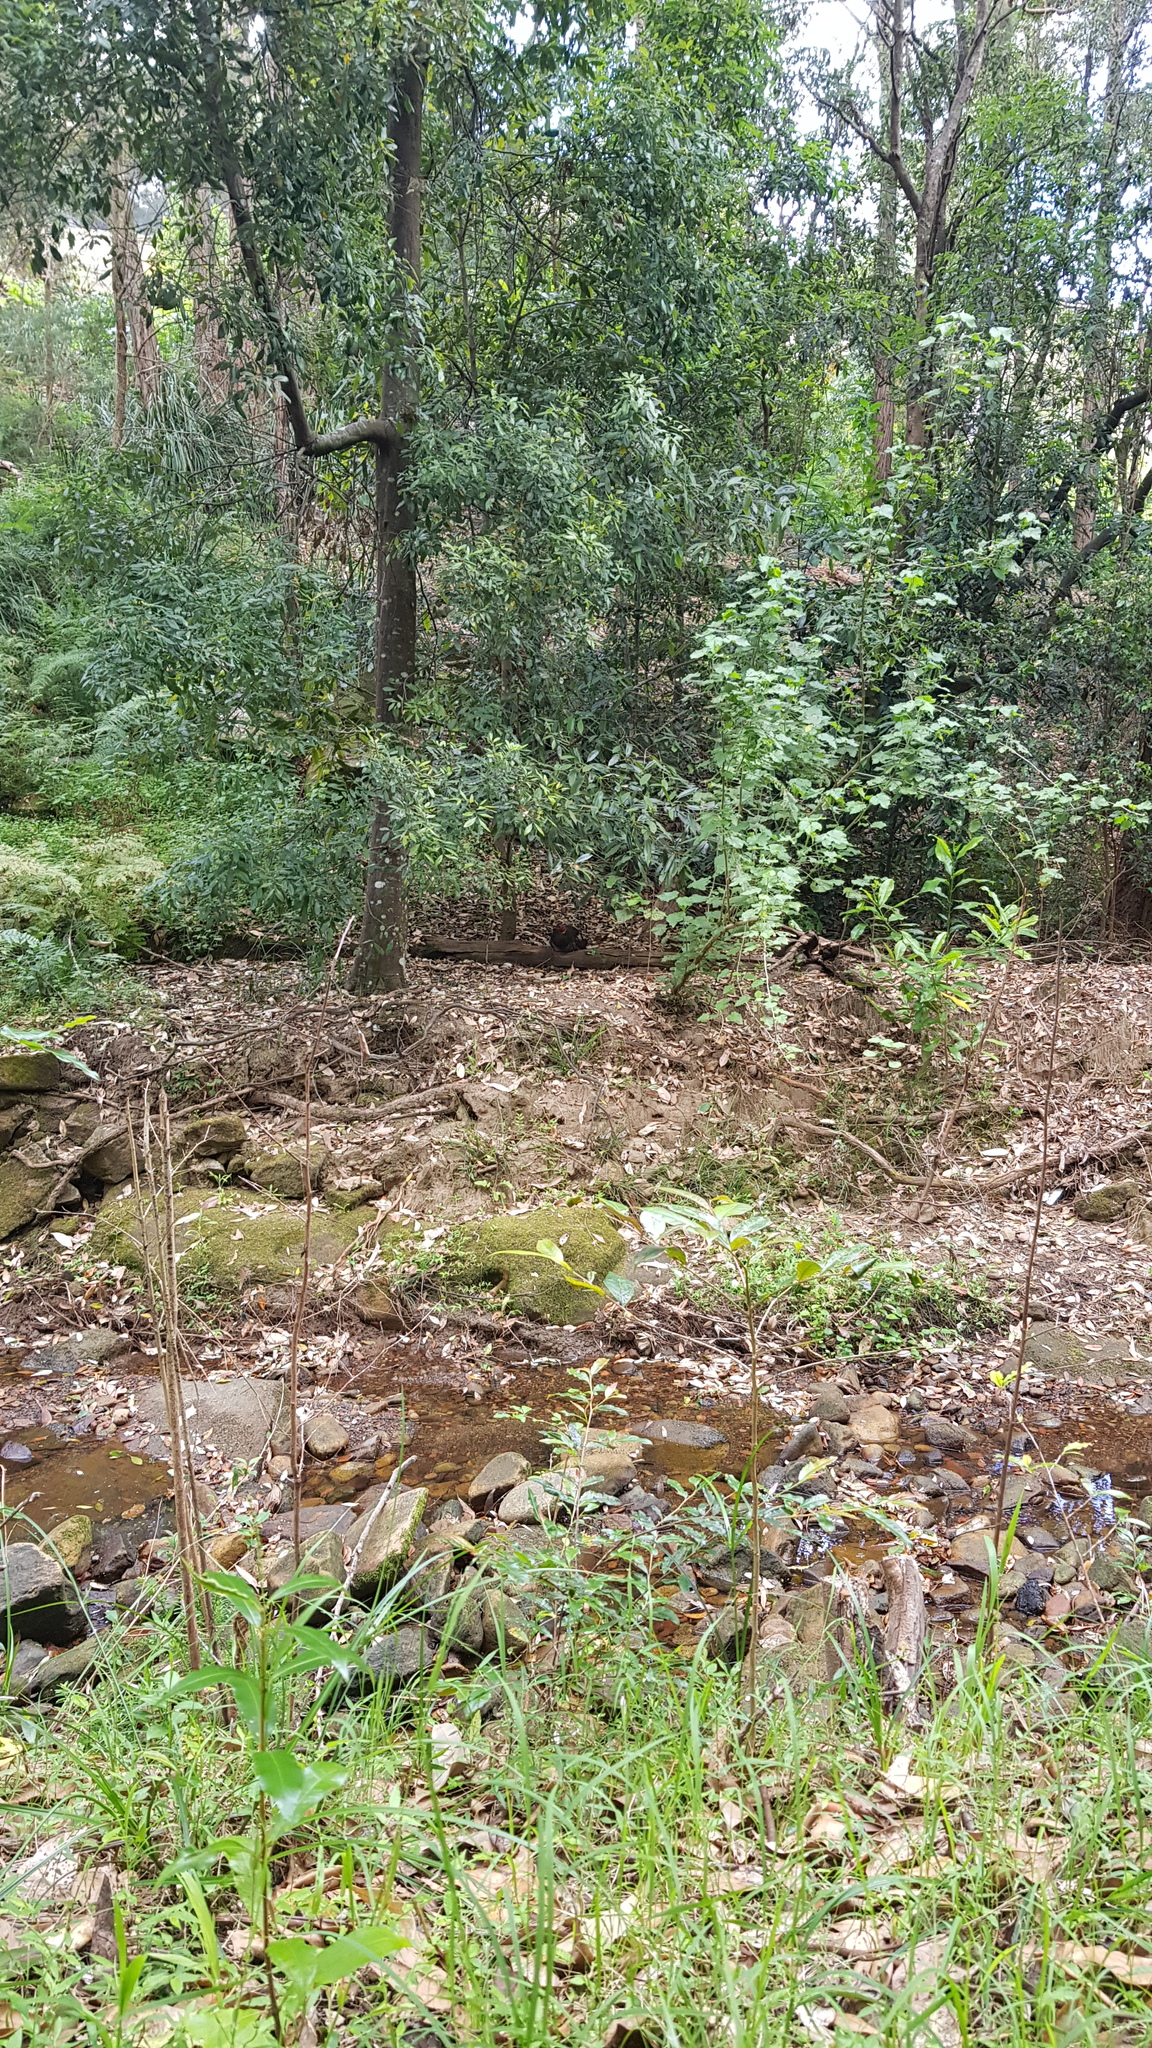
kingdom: Animalia
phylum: Chordata
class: Aves
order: Galliformes
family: Megapodiidae
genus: Alectura
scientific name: Alectura lathami
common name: Australian brushturkey
